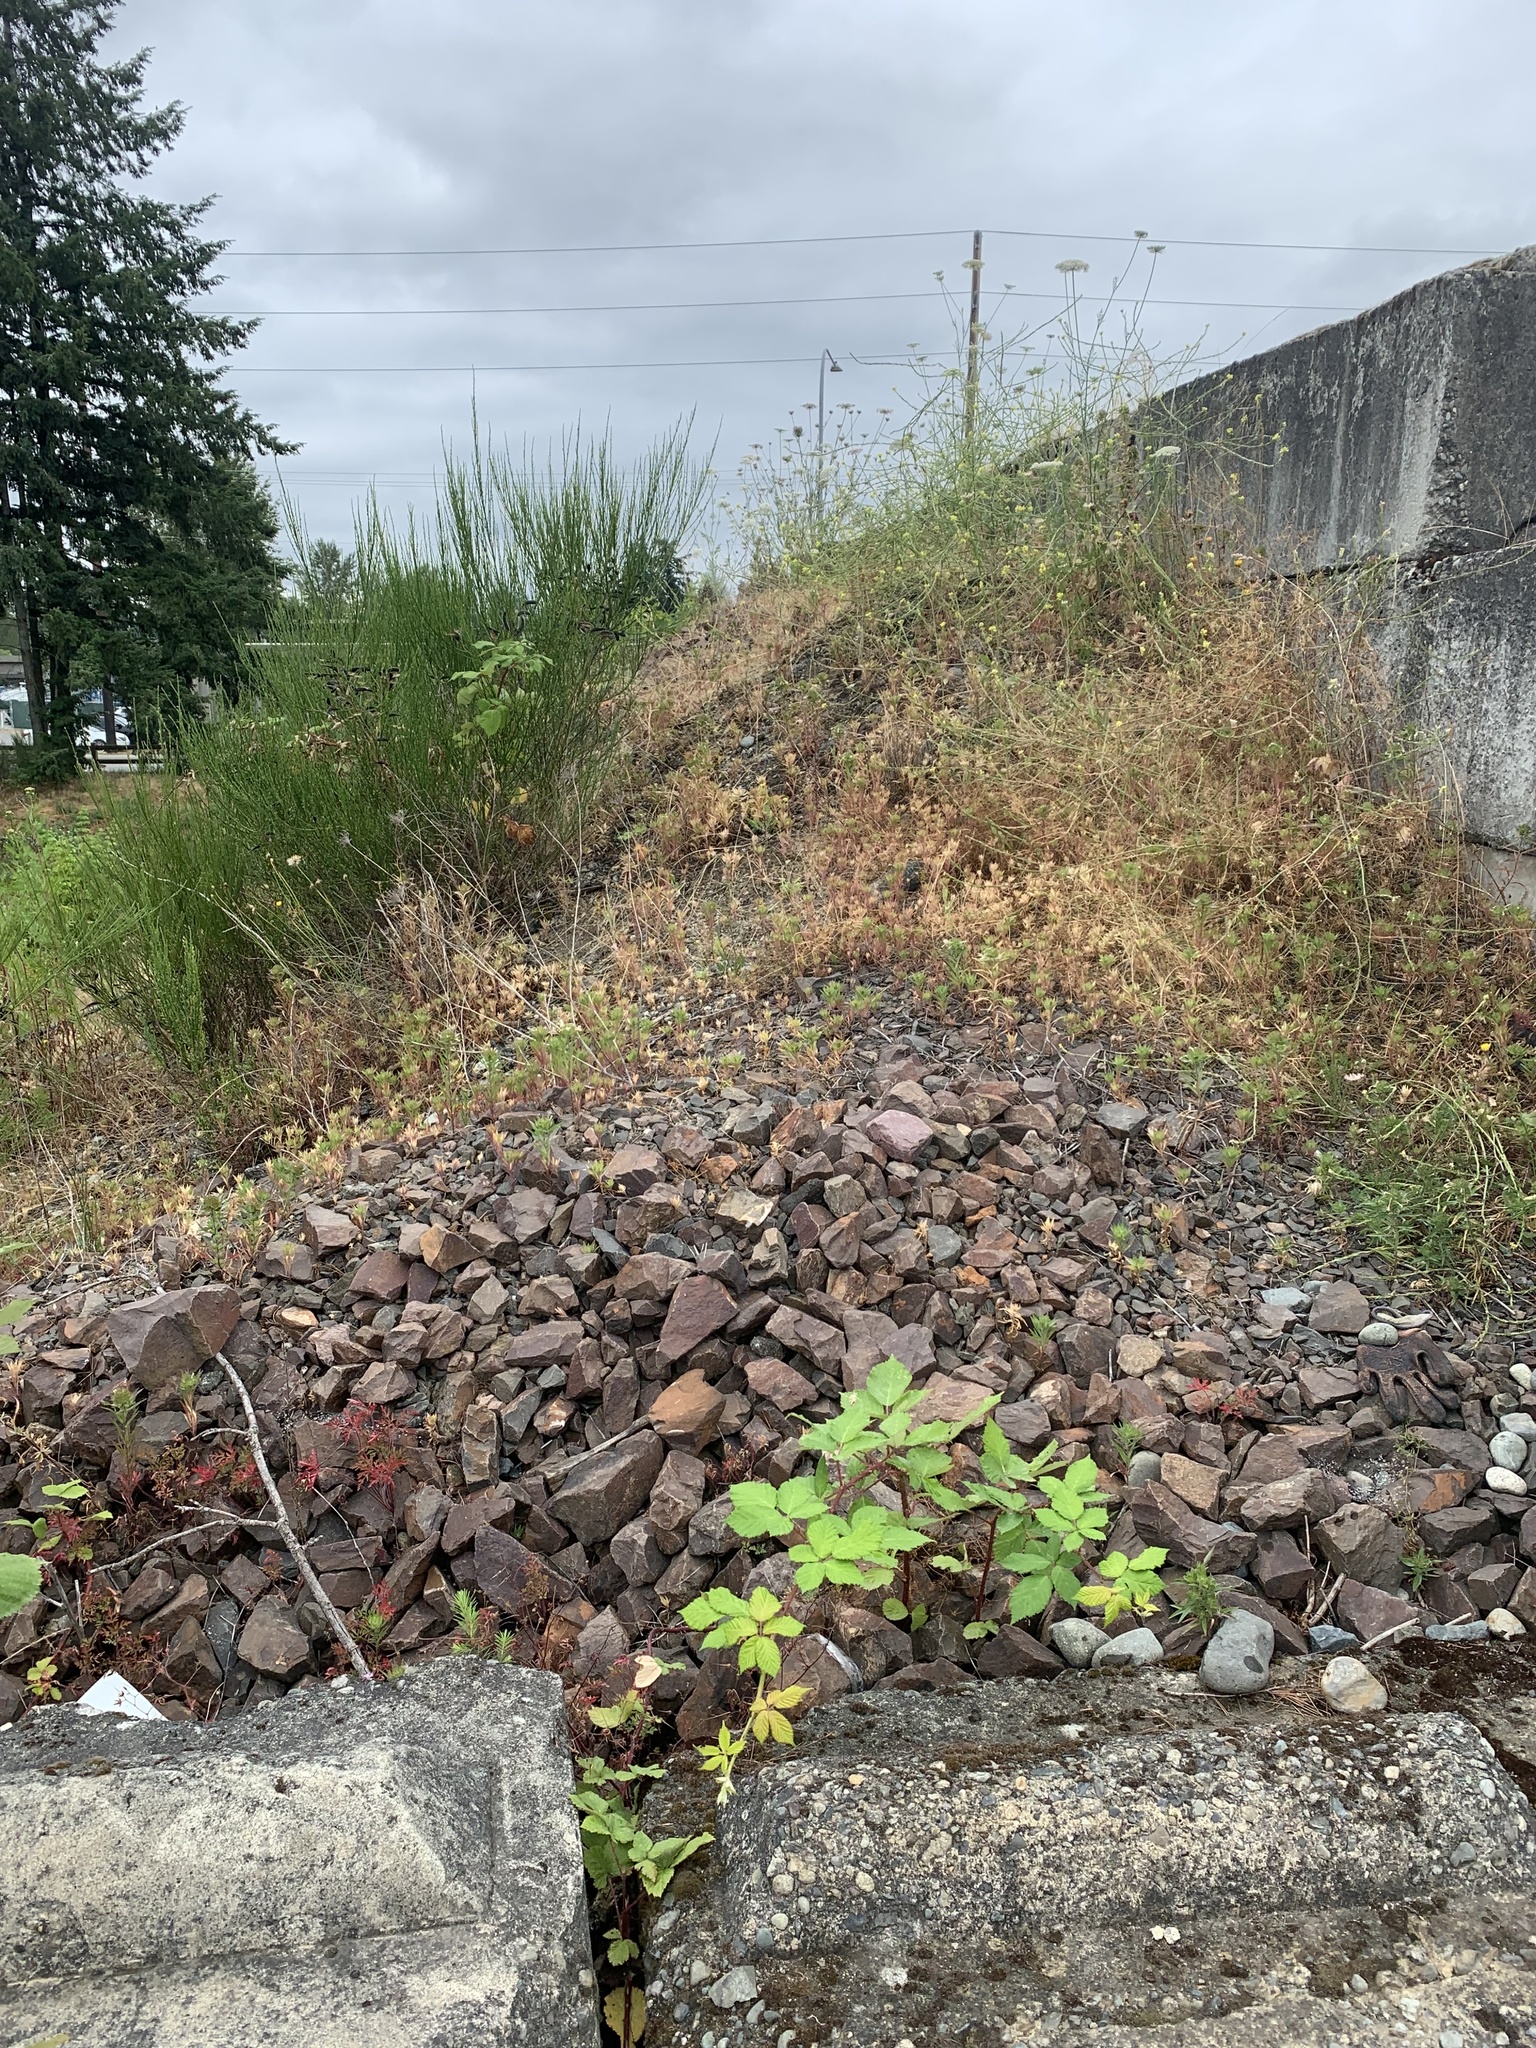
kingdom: Plantae
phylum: Tracheophyta
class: Magnoliopsida
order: Ericales
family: Polemoniaceae
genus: Collomia
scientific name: Collomia grandiflora
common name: California strawflower
